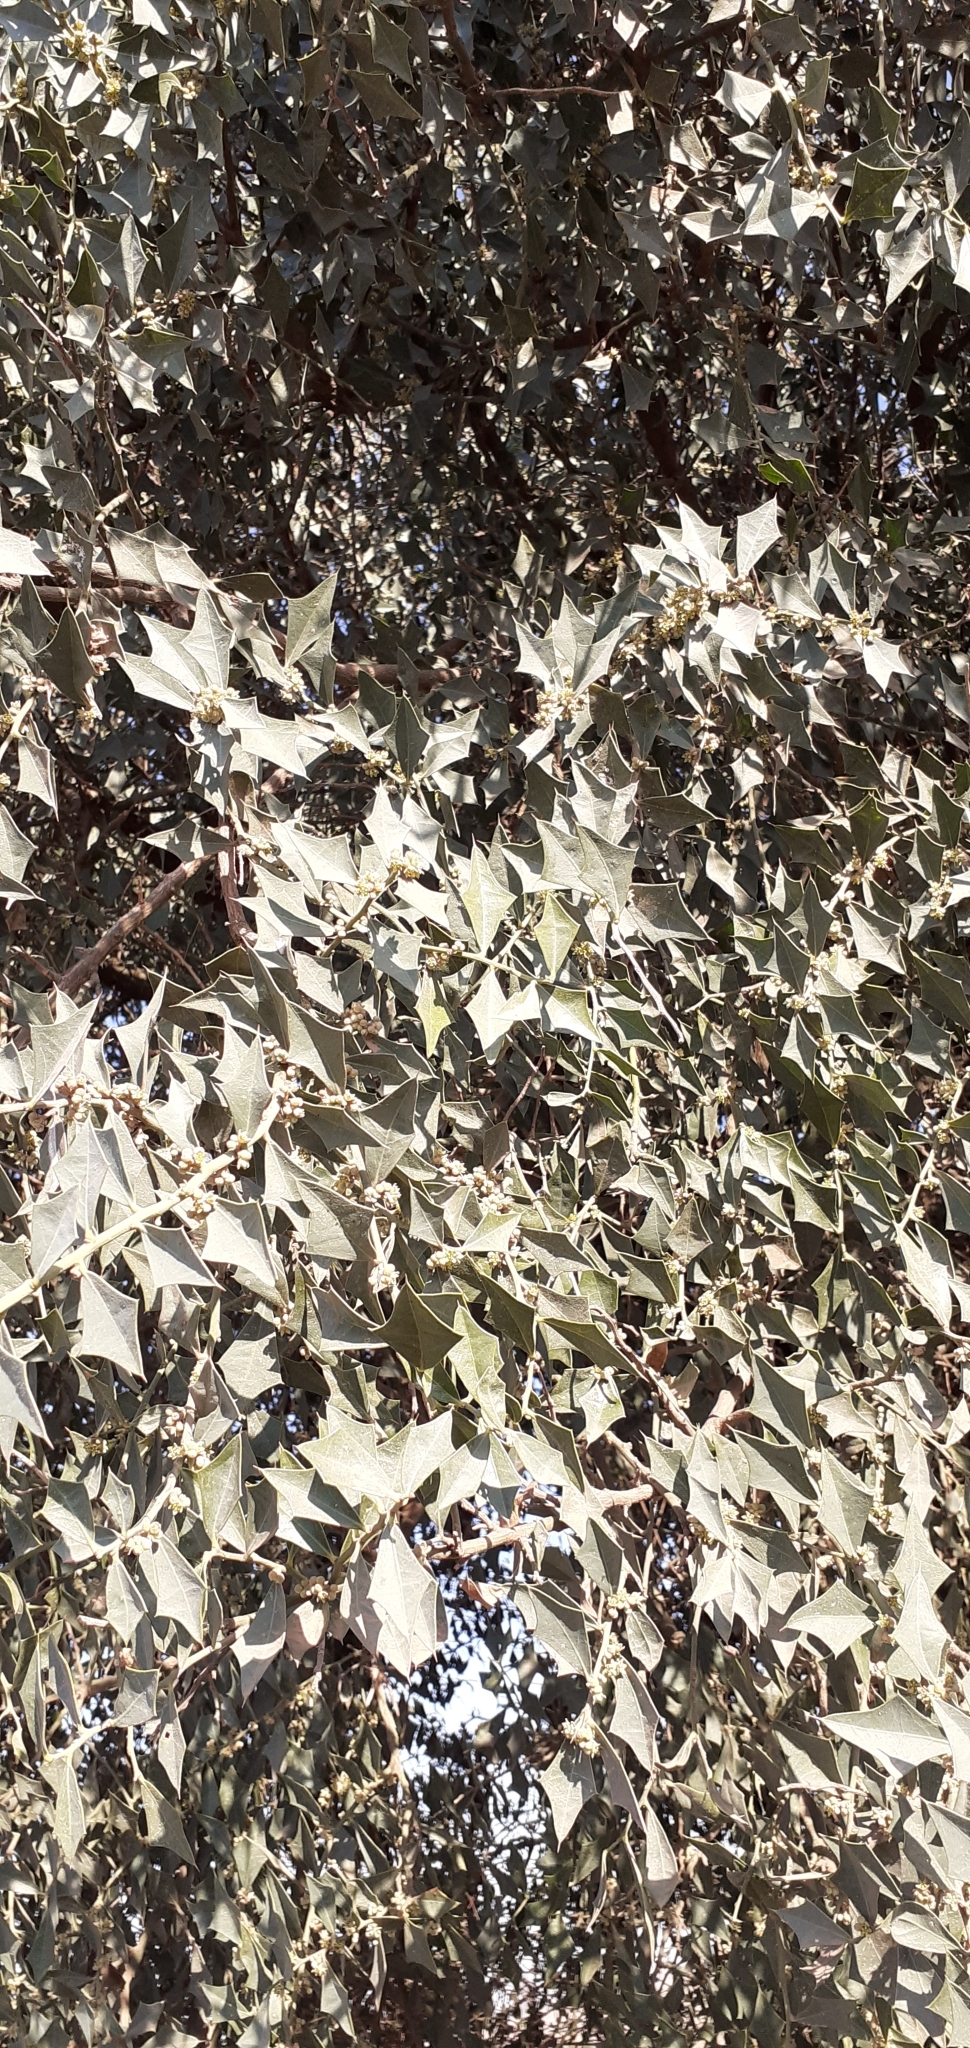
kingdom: Plantae
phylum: Tracheophyta
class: Magnoliopsida
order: Santalales
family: Cervantesiaceae
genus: Jodina
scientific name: Jodina rhombifolia
